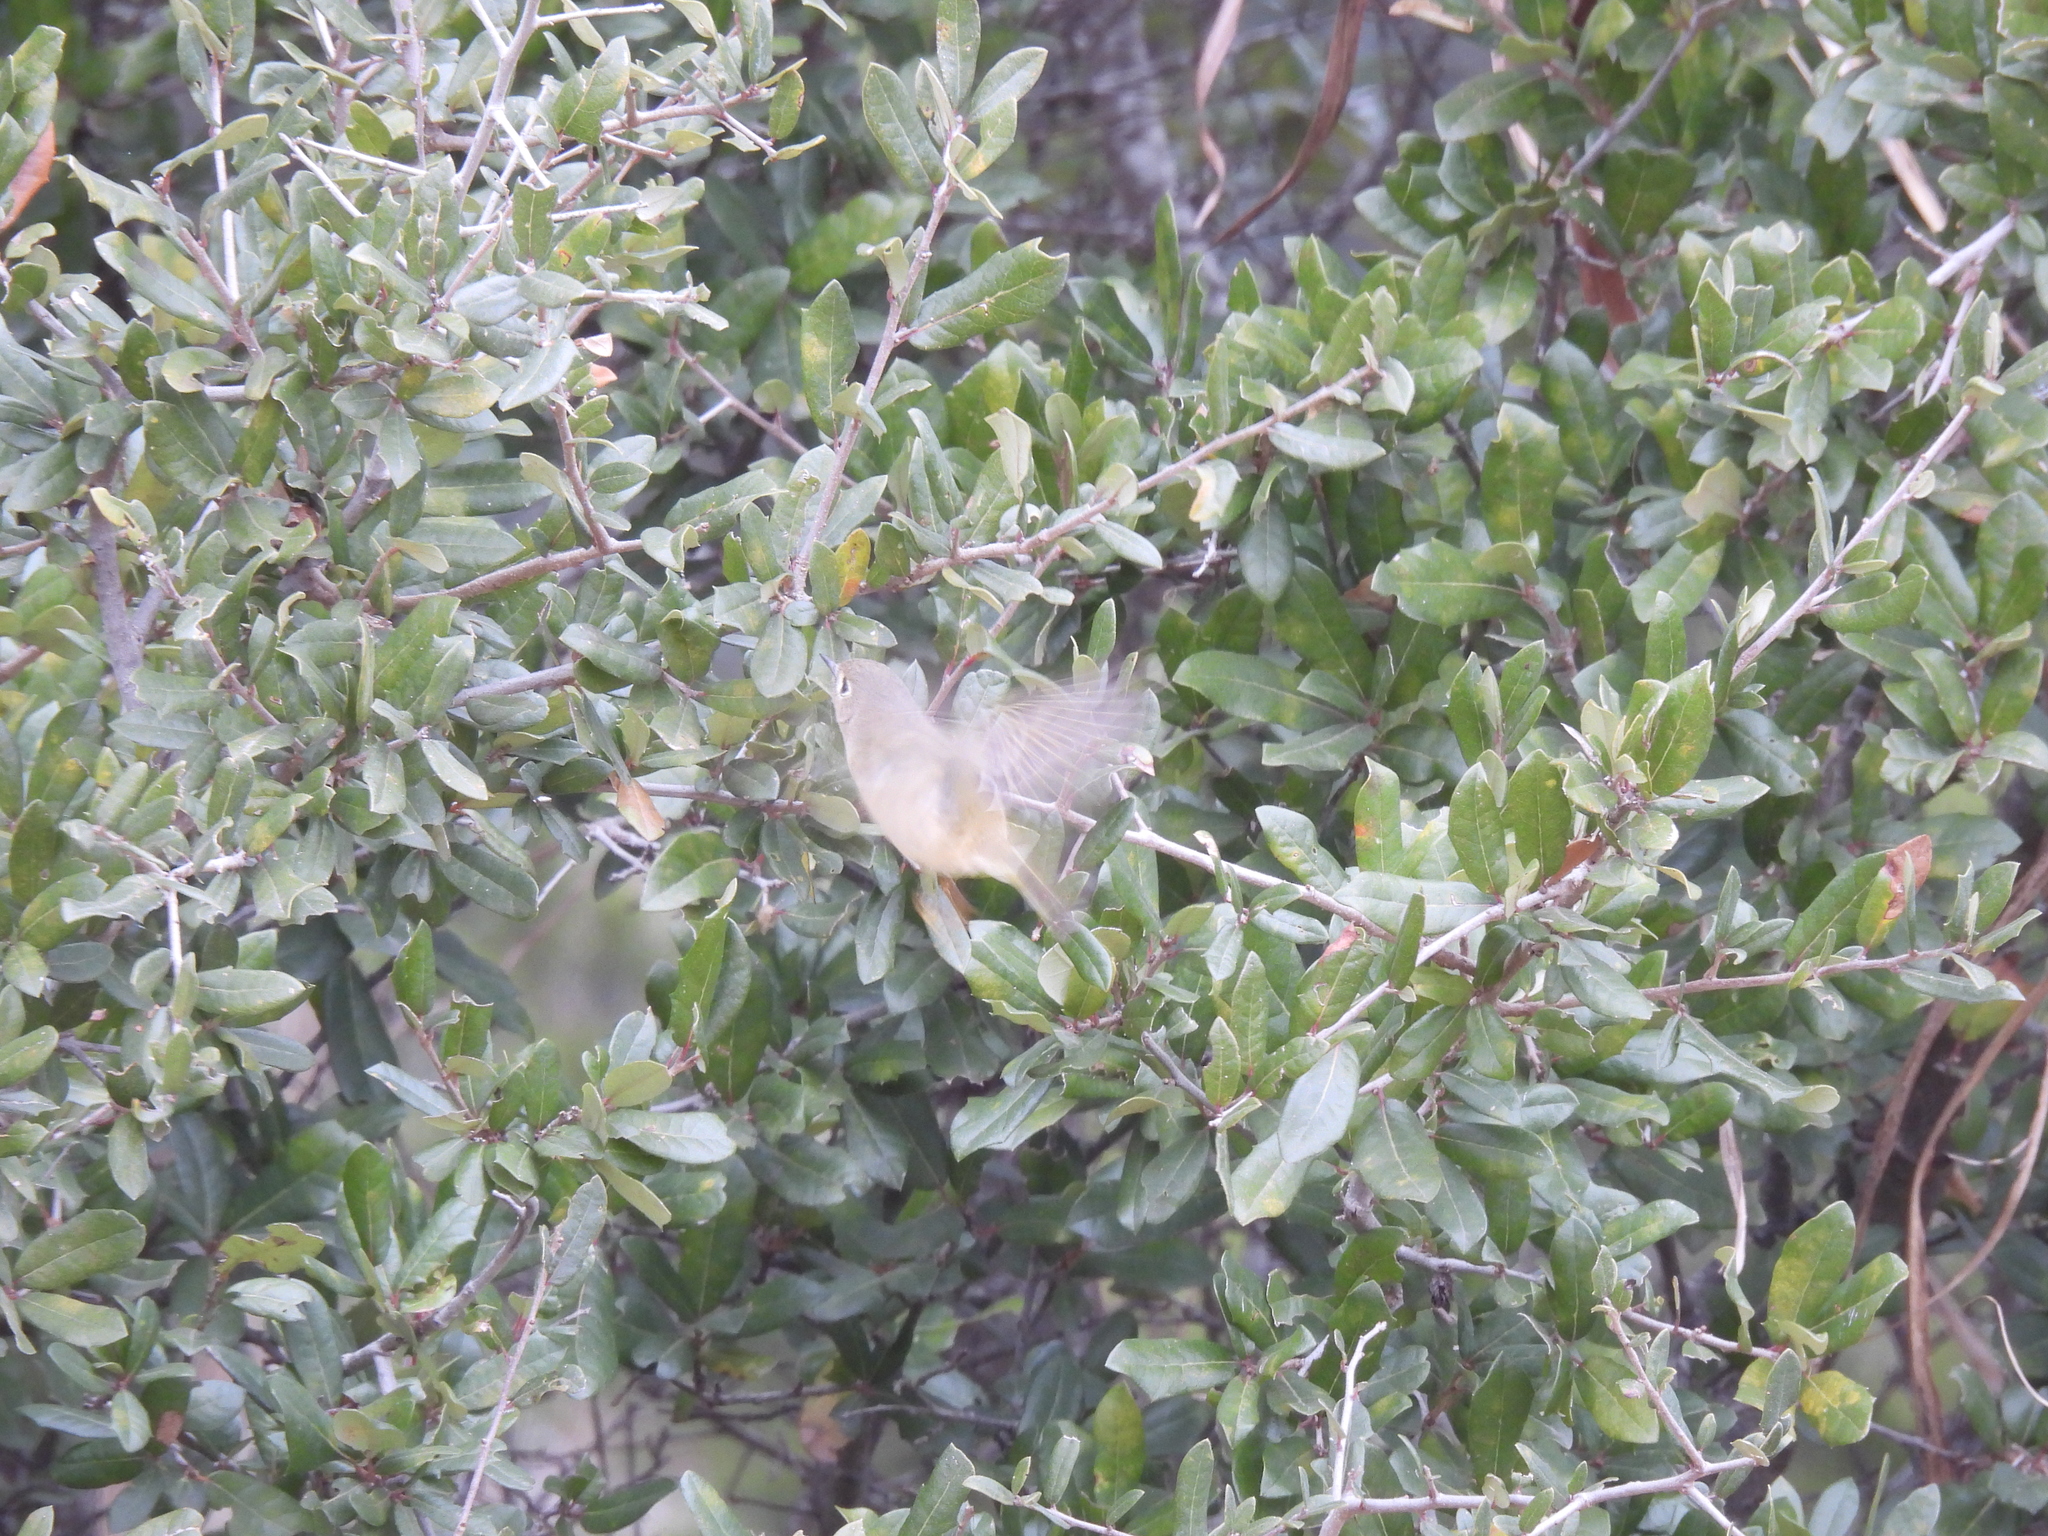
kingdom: Animalia
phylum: Chordata
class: Aves
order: Passeriformes
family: Regulidae
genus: Regulus
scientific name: Regulus calendula
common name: Ruby-crowned kinglet
